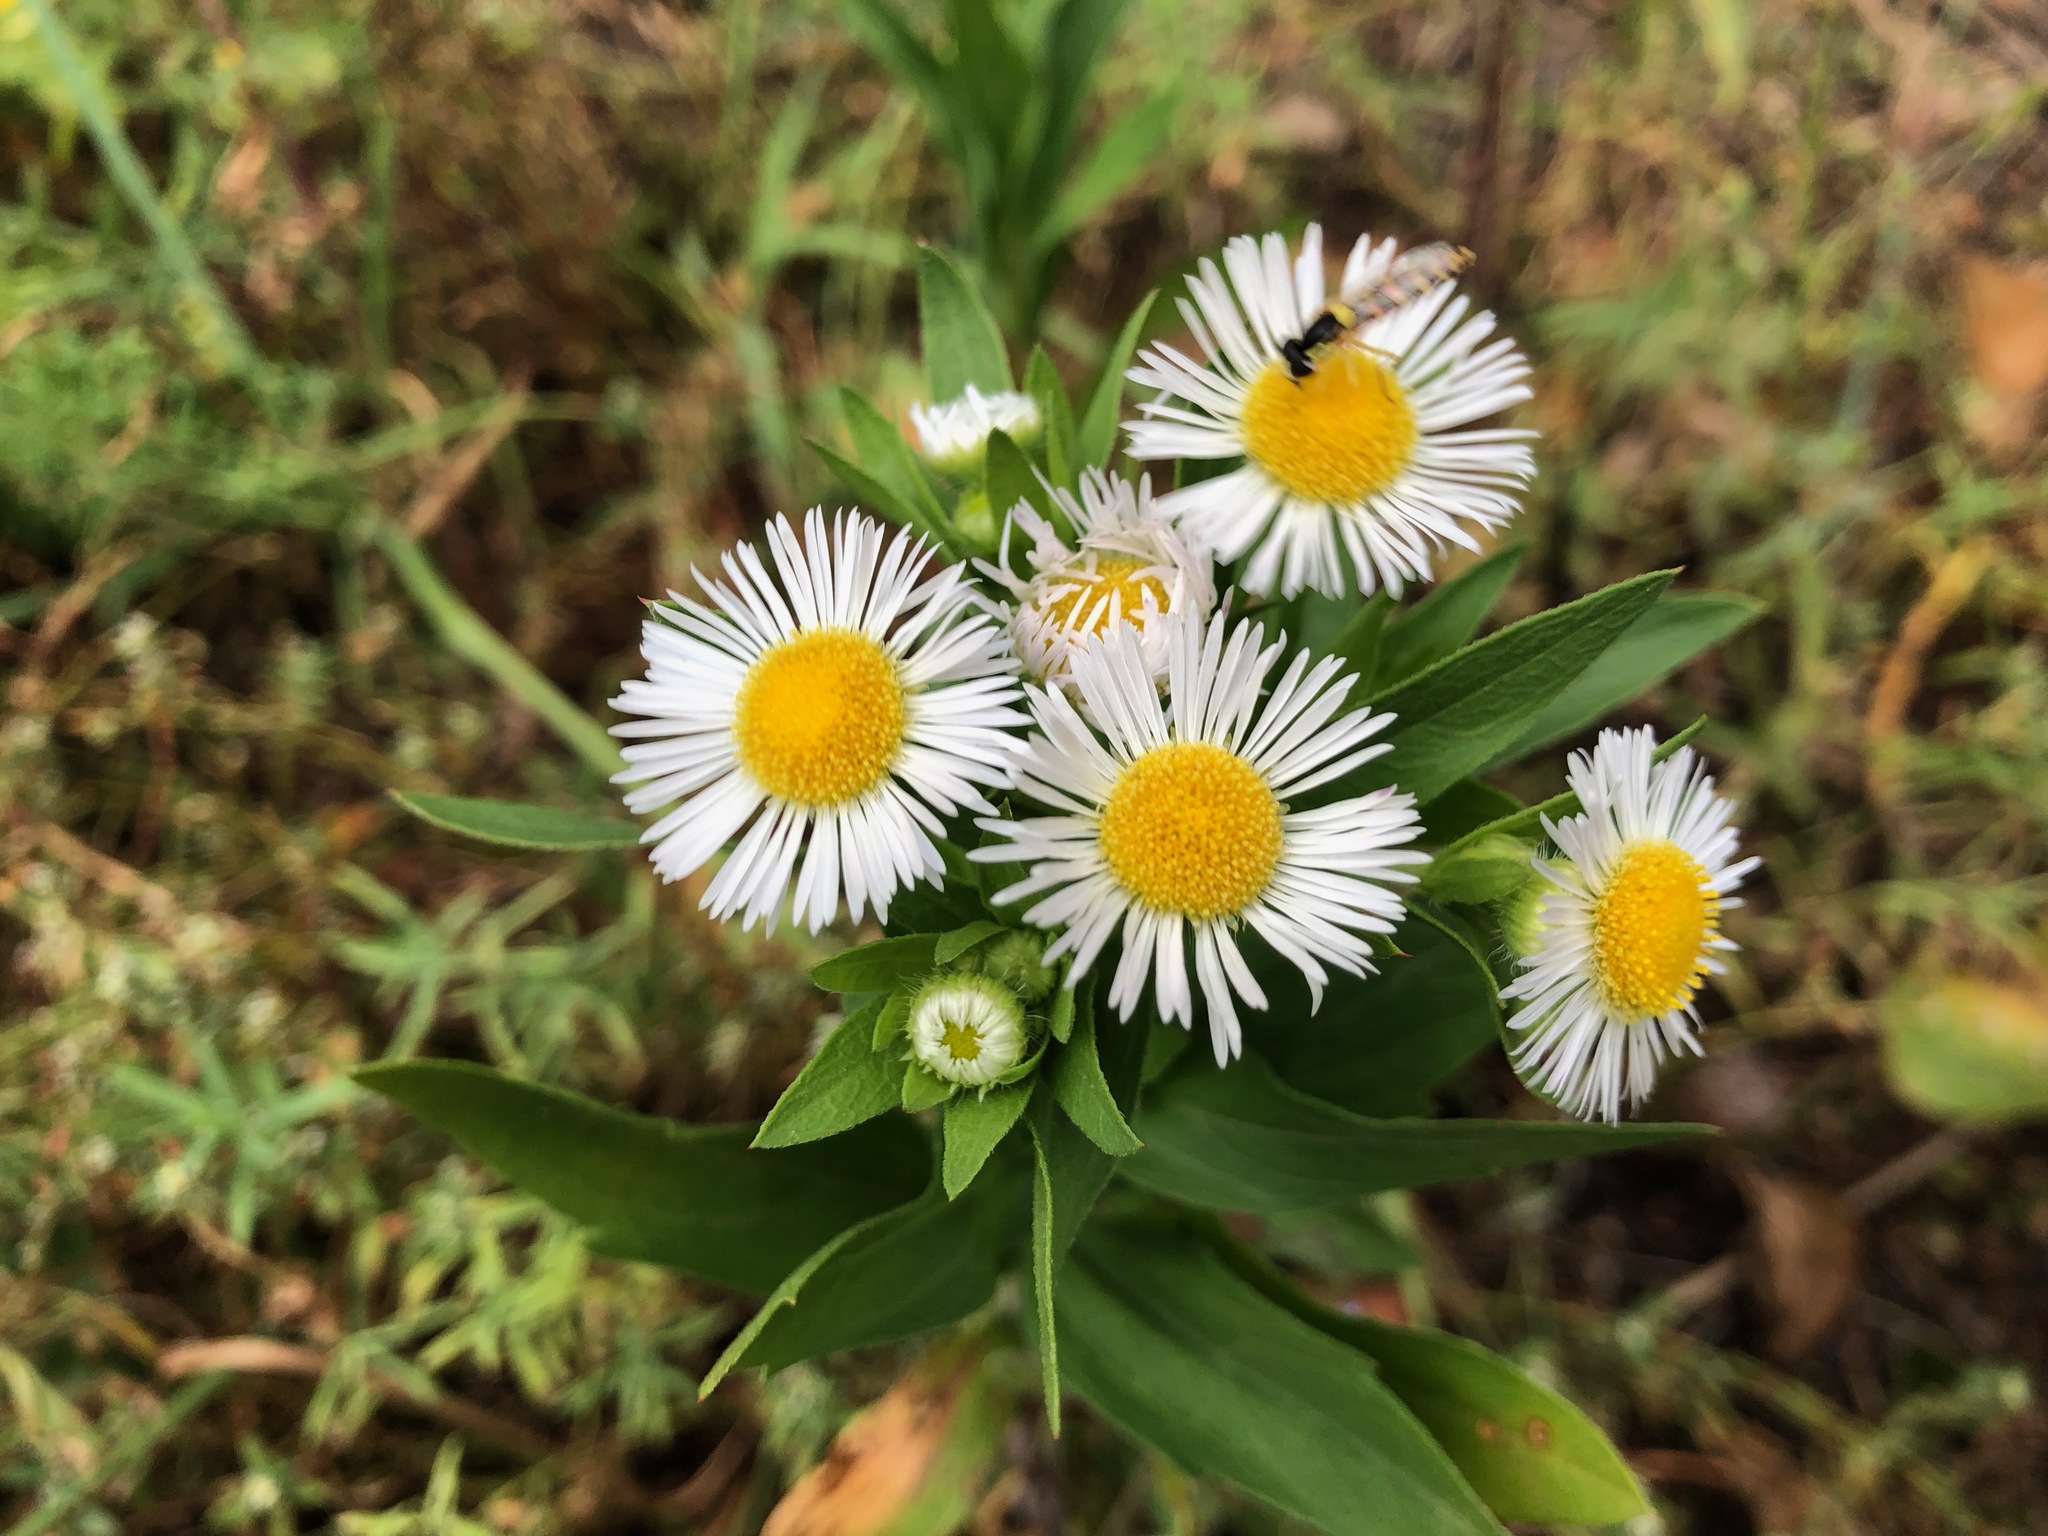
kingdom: Plantae
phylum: Tracheophyta
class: Magnoliopsida
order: Asterales
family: Asteraceae
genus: Erigeron
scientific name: Erigeron annuus
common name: Tall fleabane
